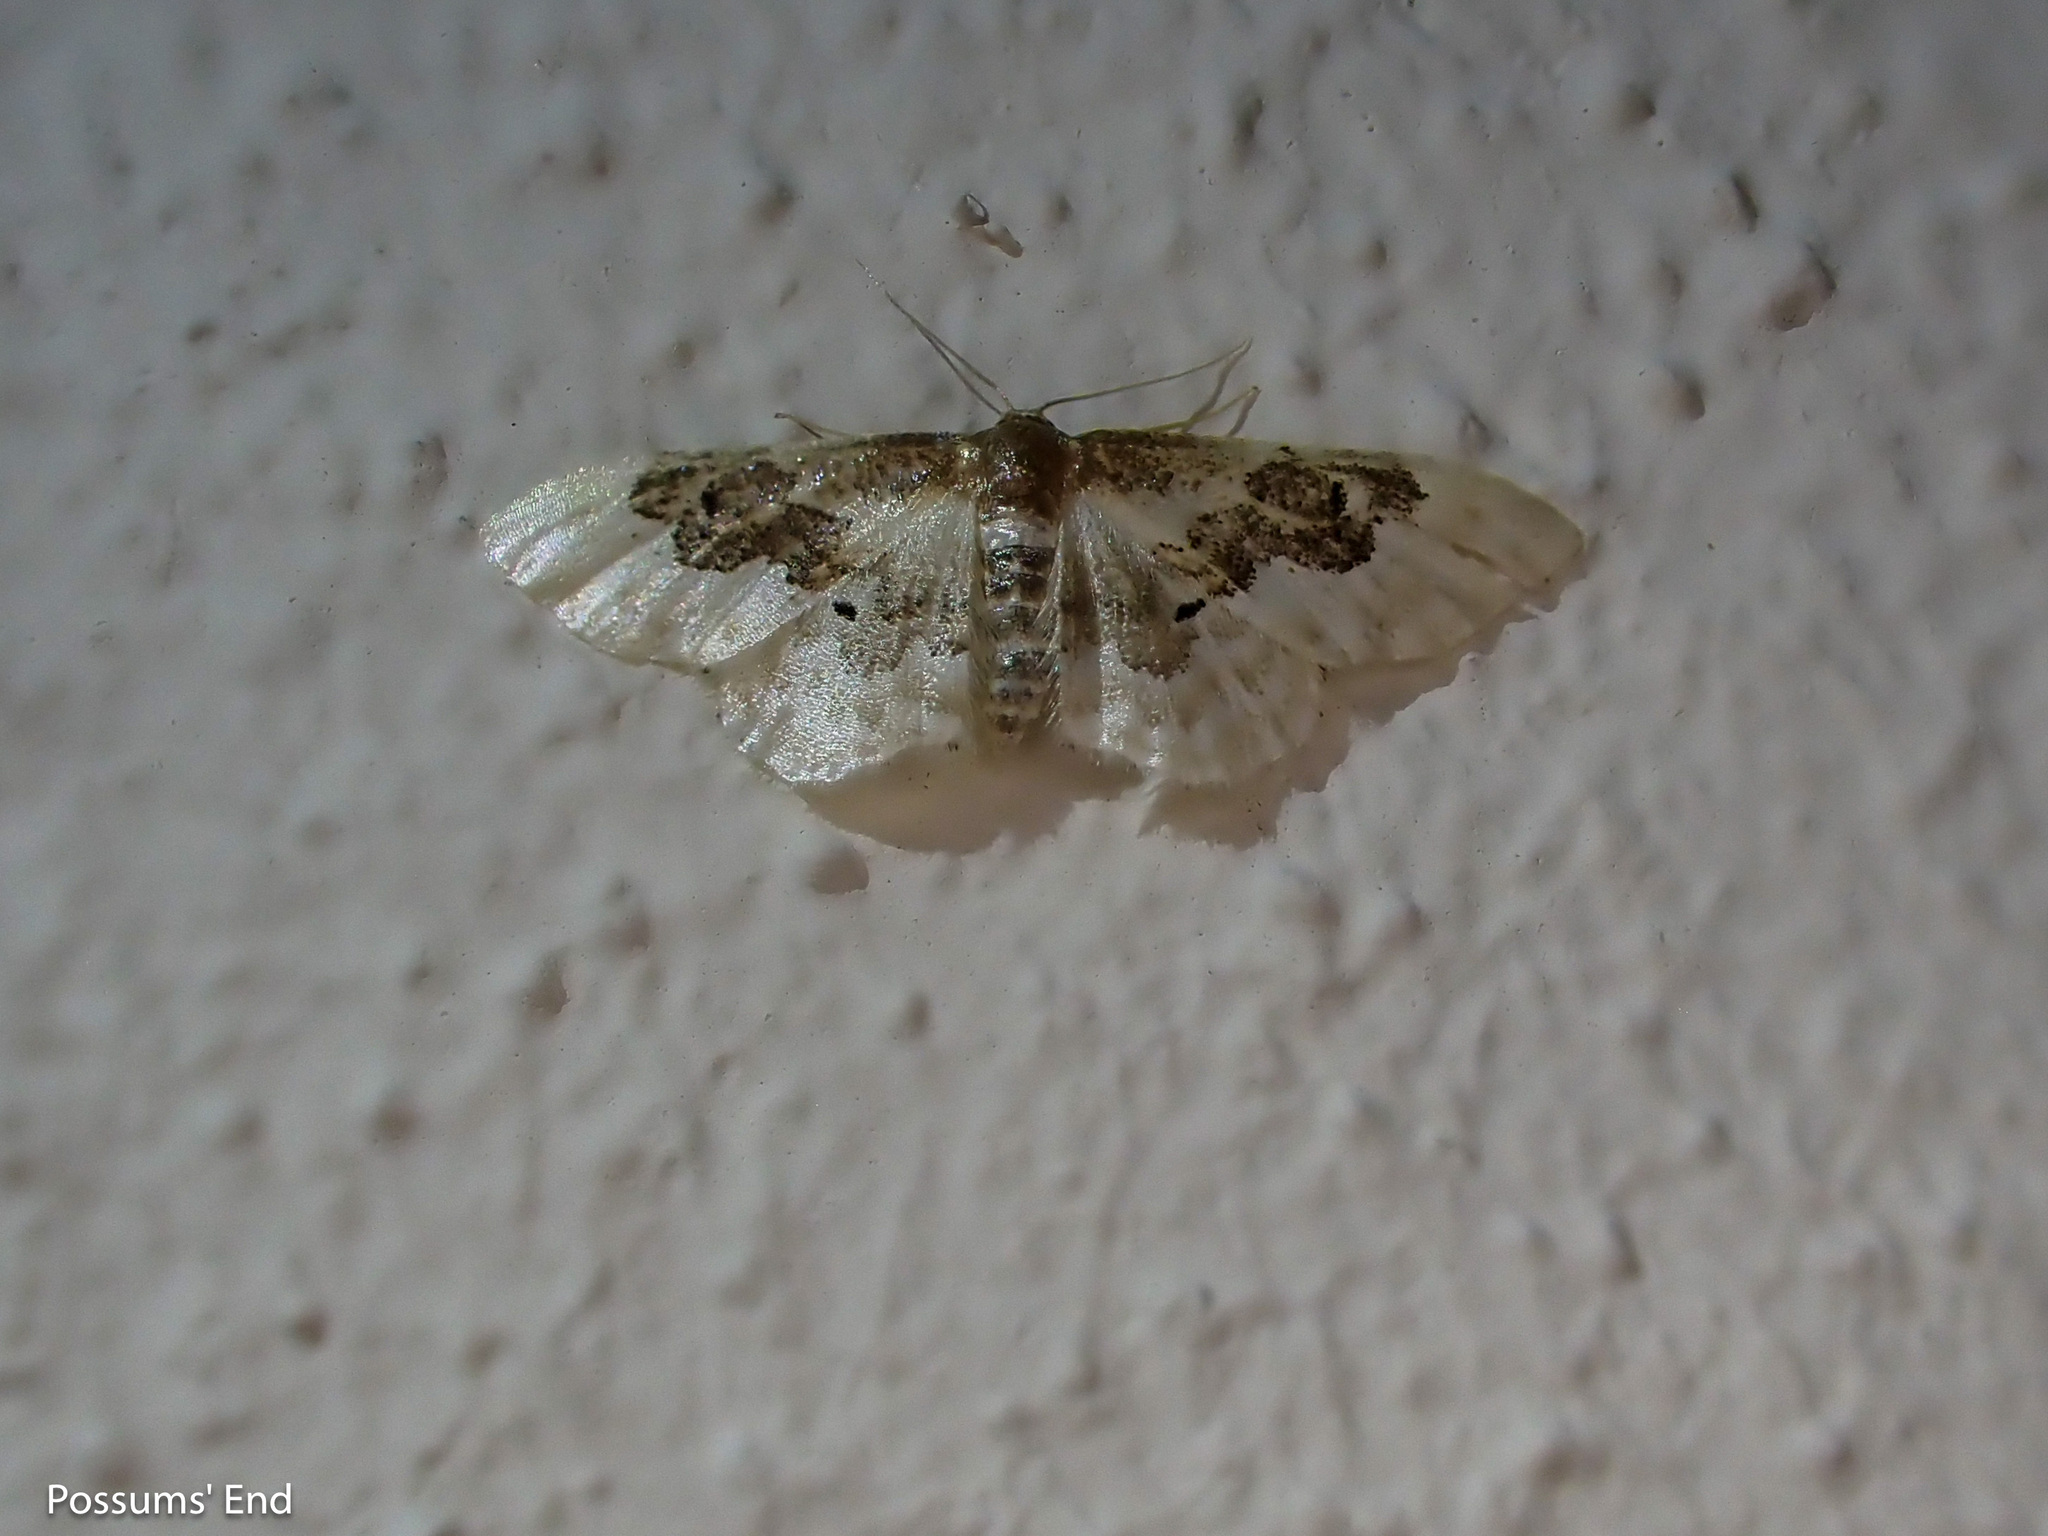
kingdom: Animalia
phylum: Arthropoda
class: Insecta
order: Lepidoptera
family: Geometridae
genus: Idaea
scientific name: Idaea rusticata
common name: Least carpet
